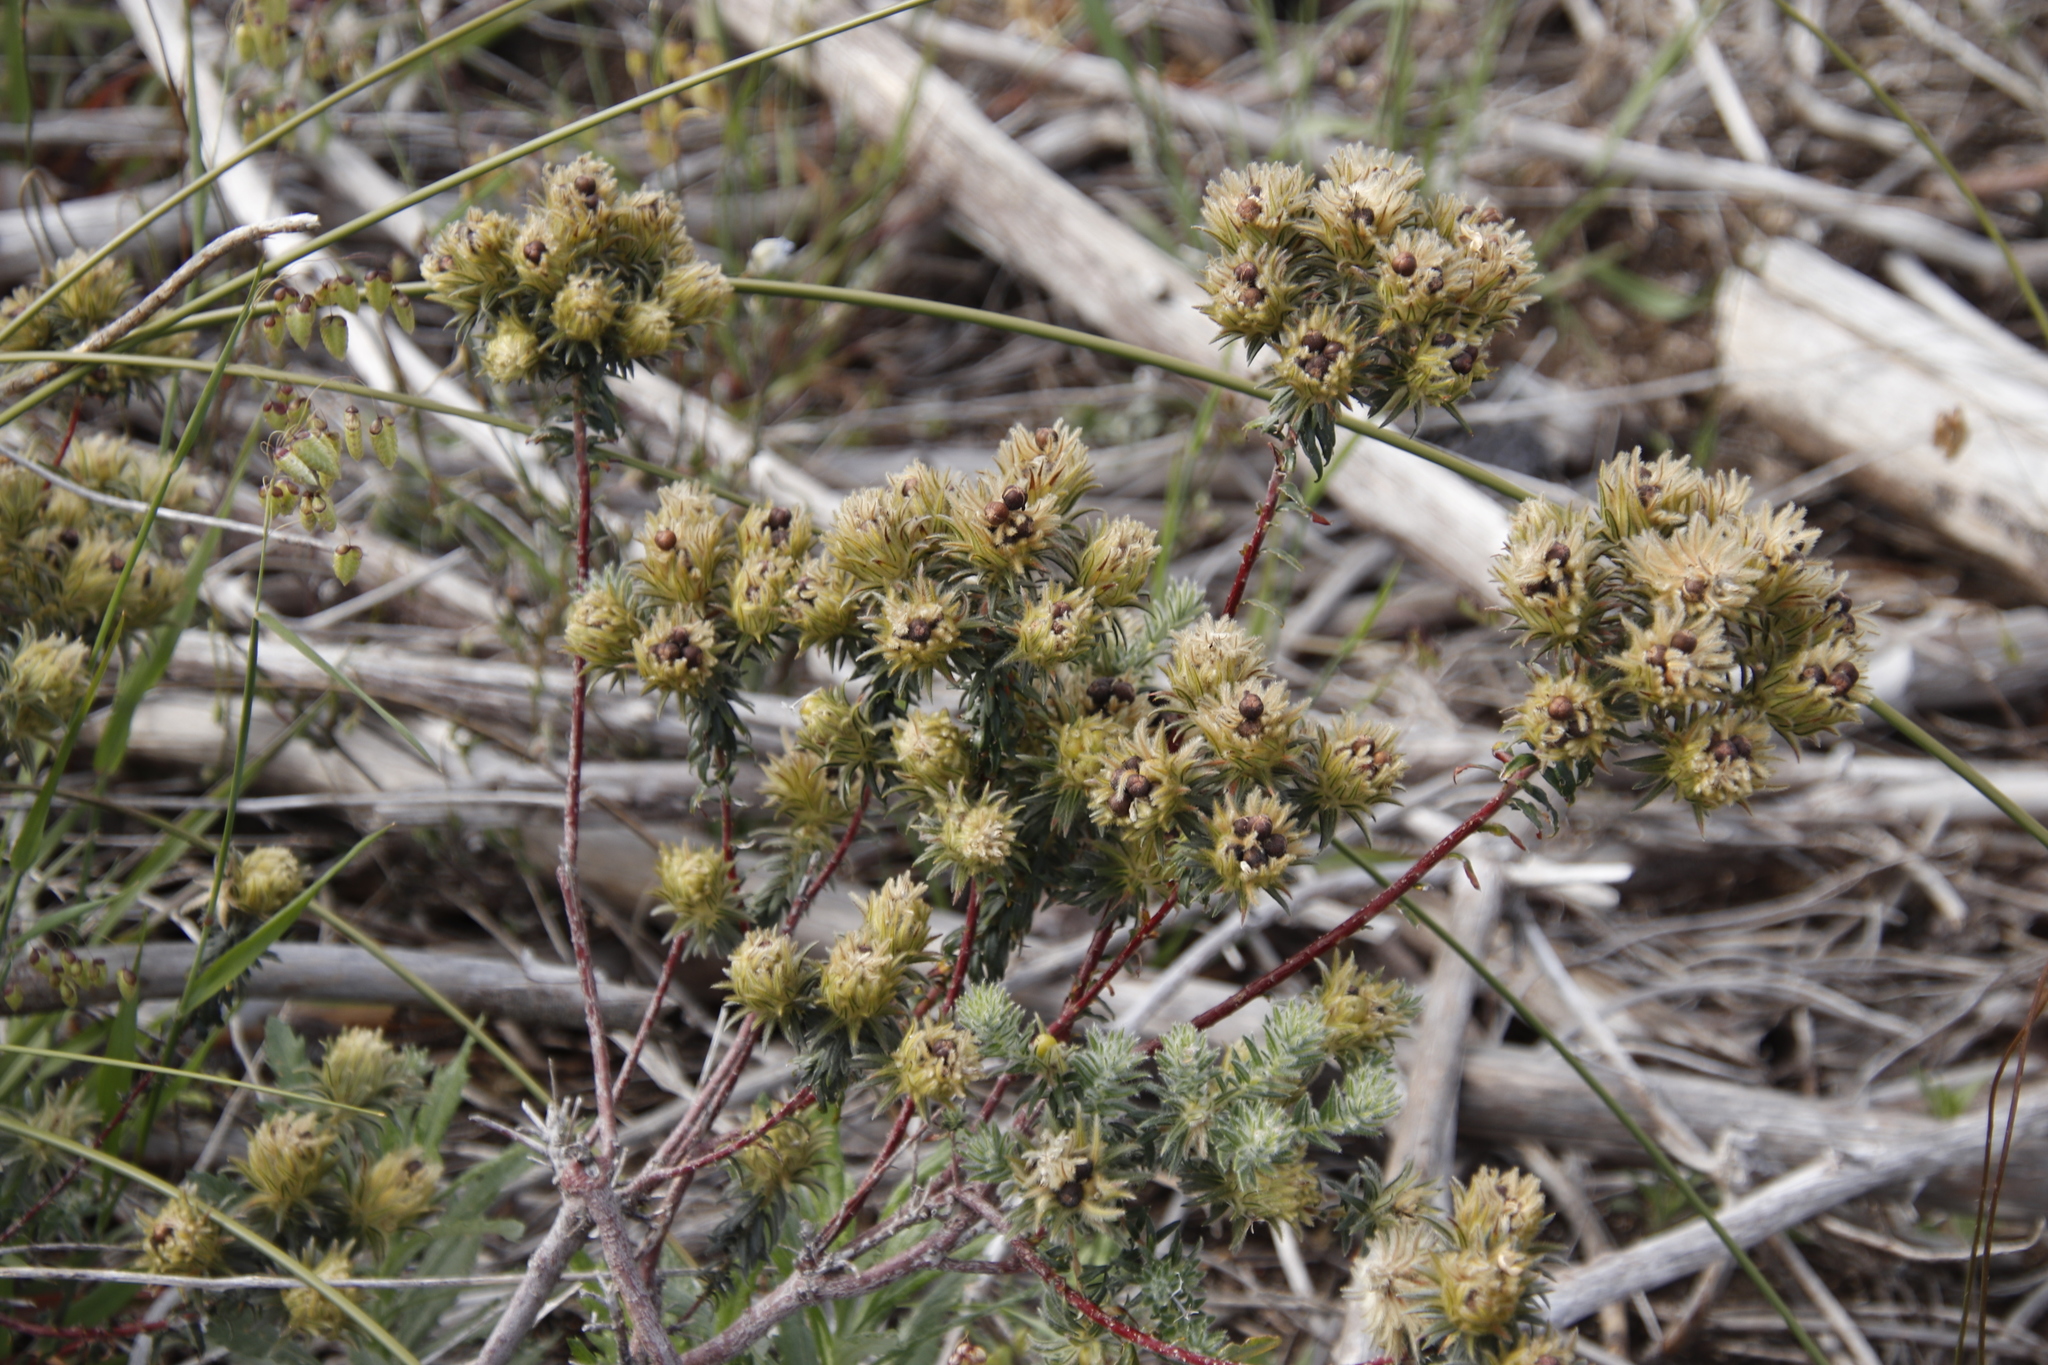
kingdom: Plantae
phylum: Tracheophyta
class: Magnoliopsida
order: Rosales
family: Rhamnaceae
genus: Phylica
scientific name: Phylica pubescens
